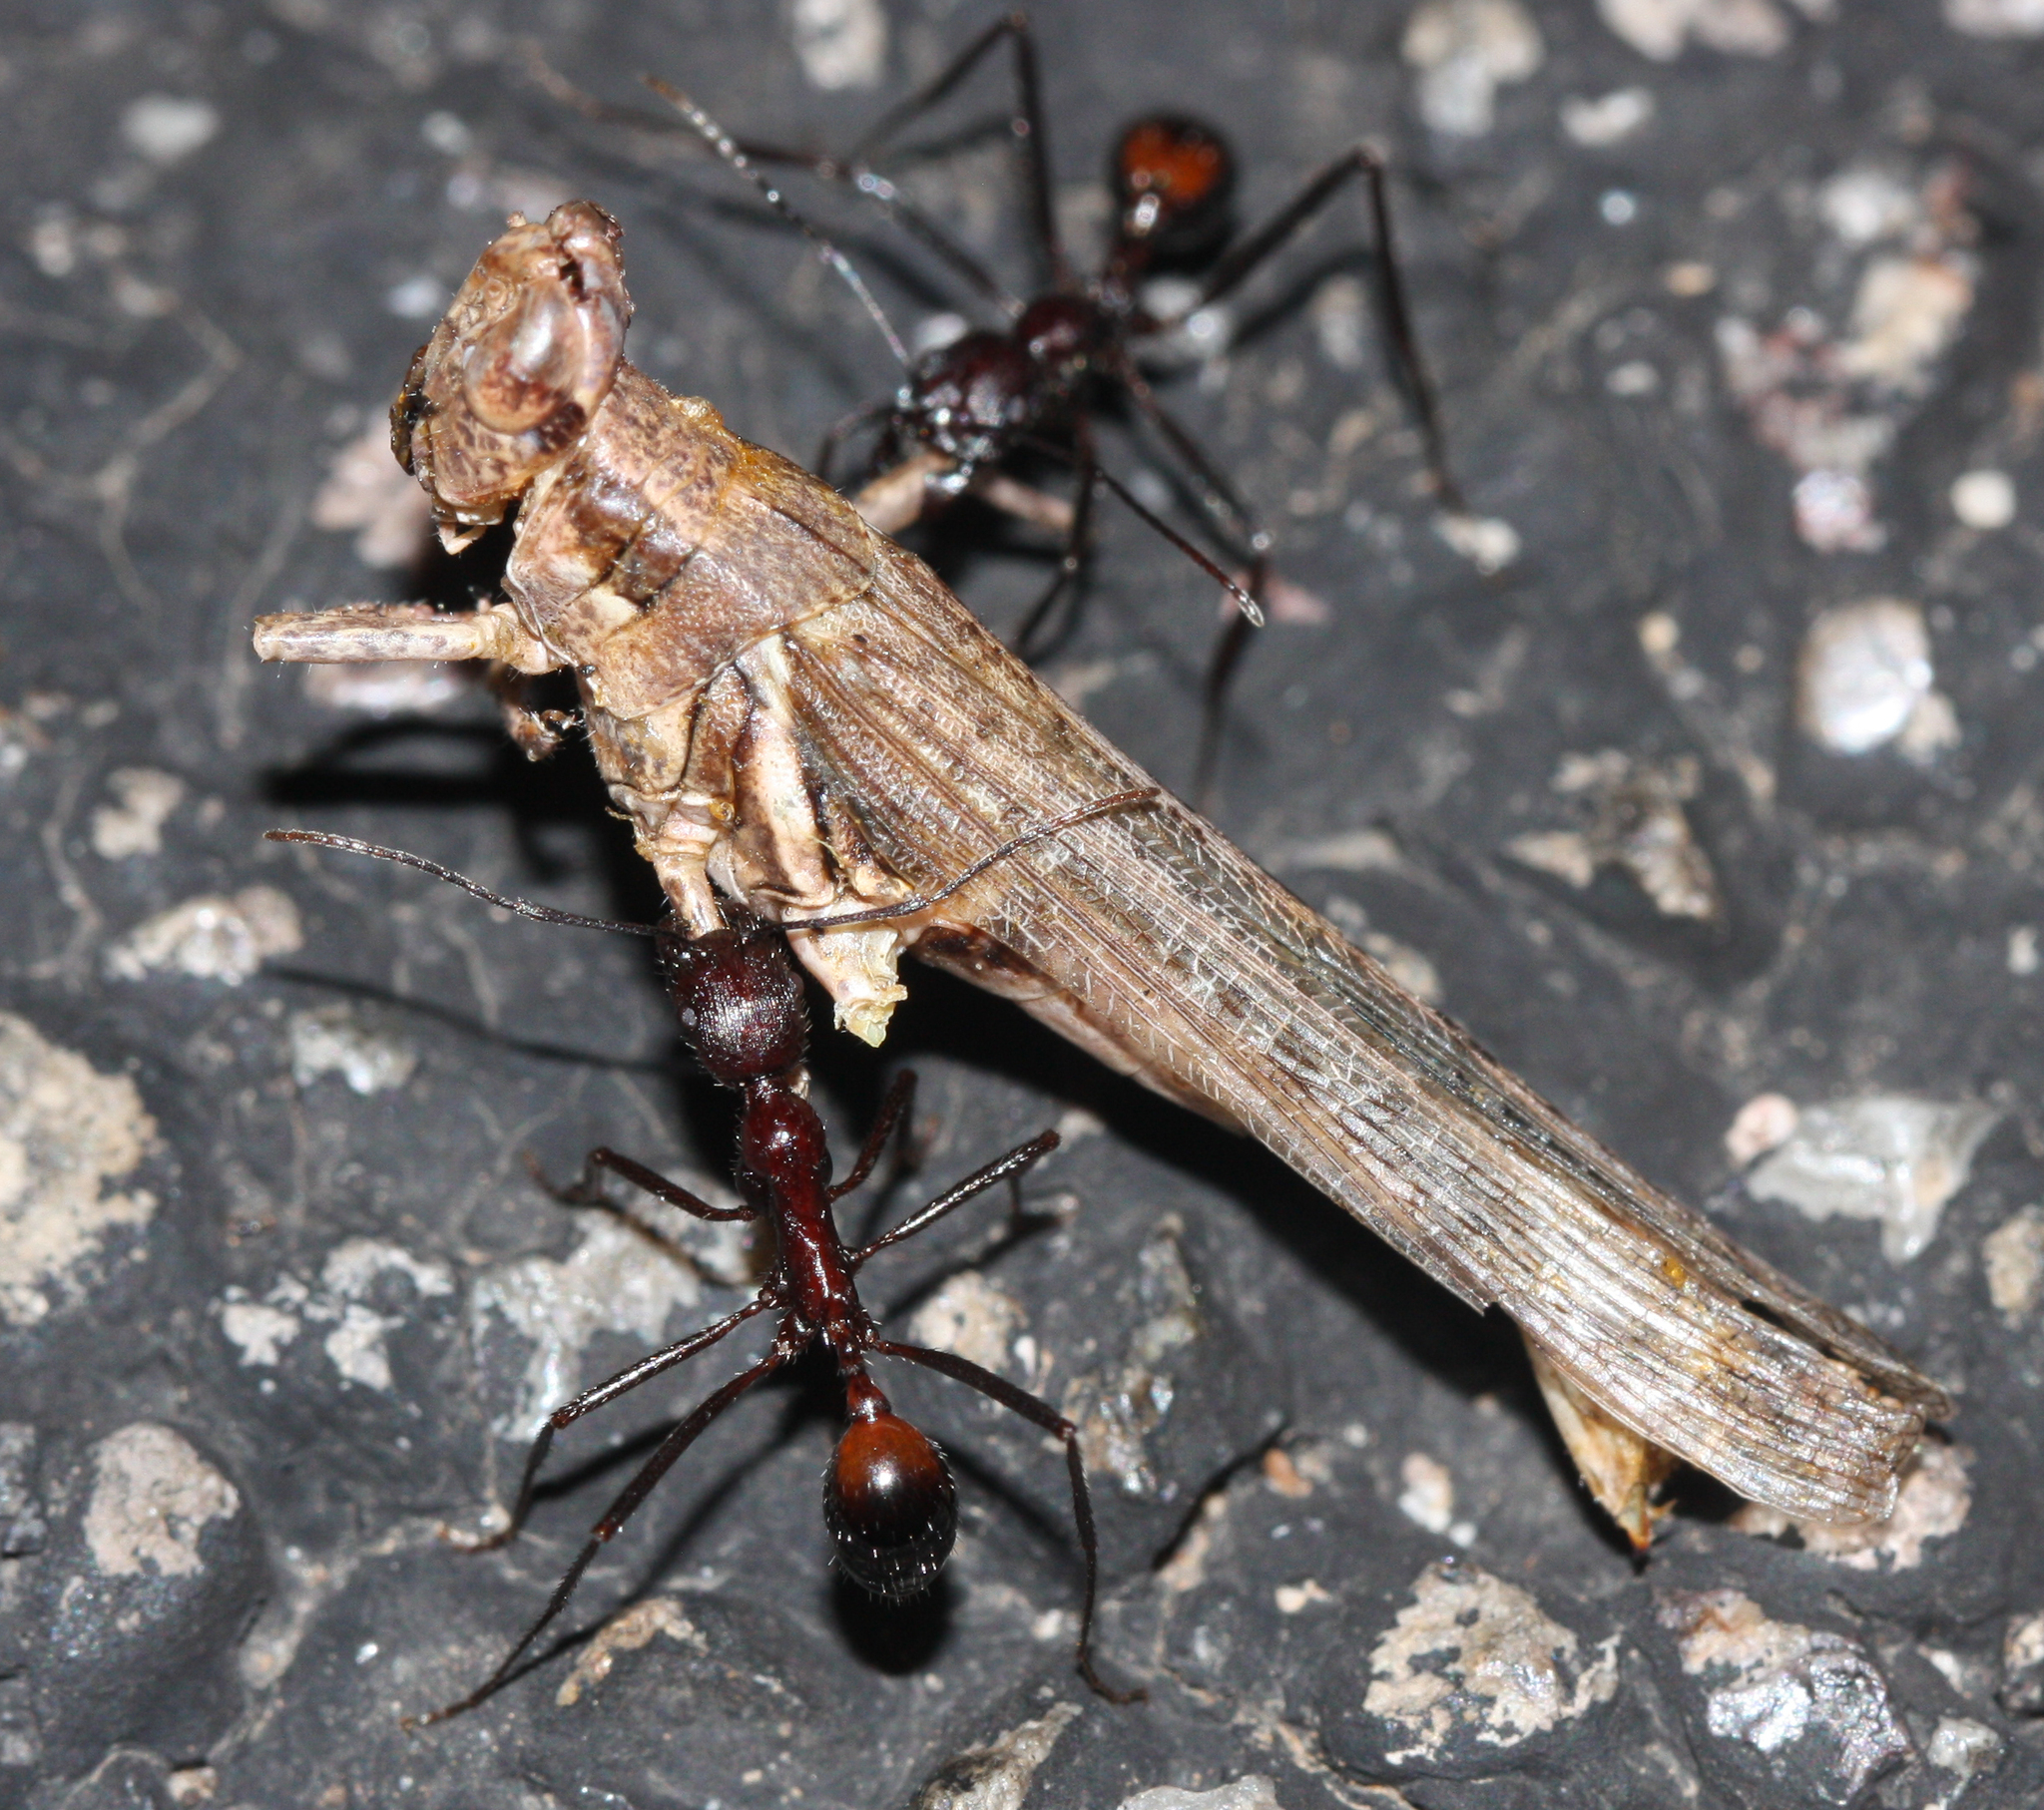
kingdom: Animalia
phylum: Arthropoda
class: Insecta
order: Hymenoptera
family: Formicidae
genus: Novomessor
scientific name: Novomessor cockerelli
